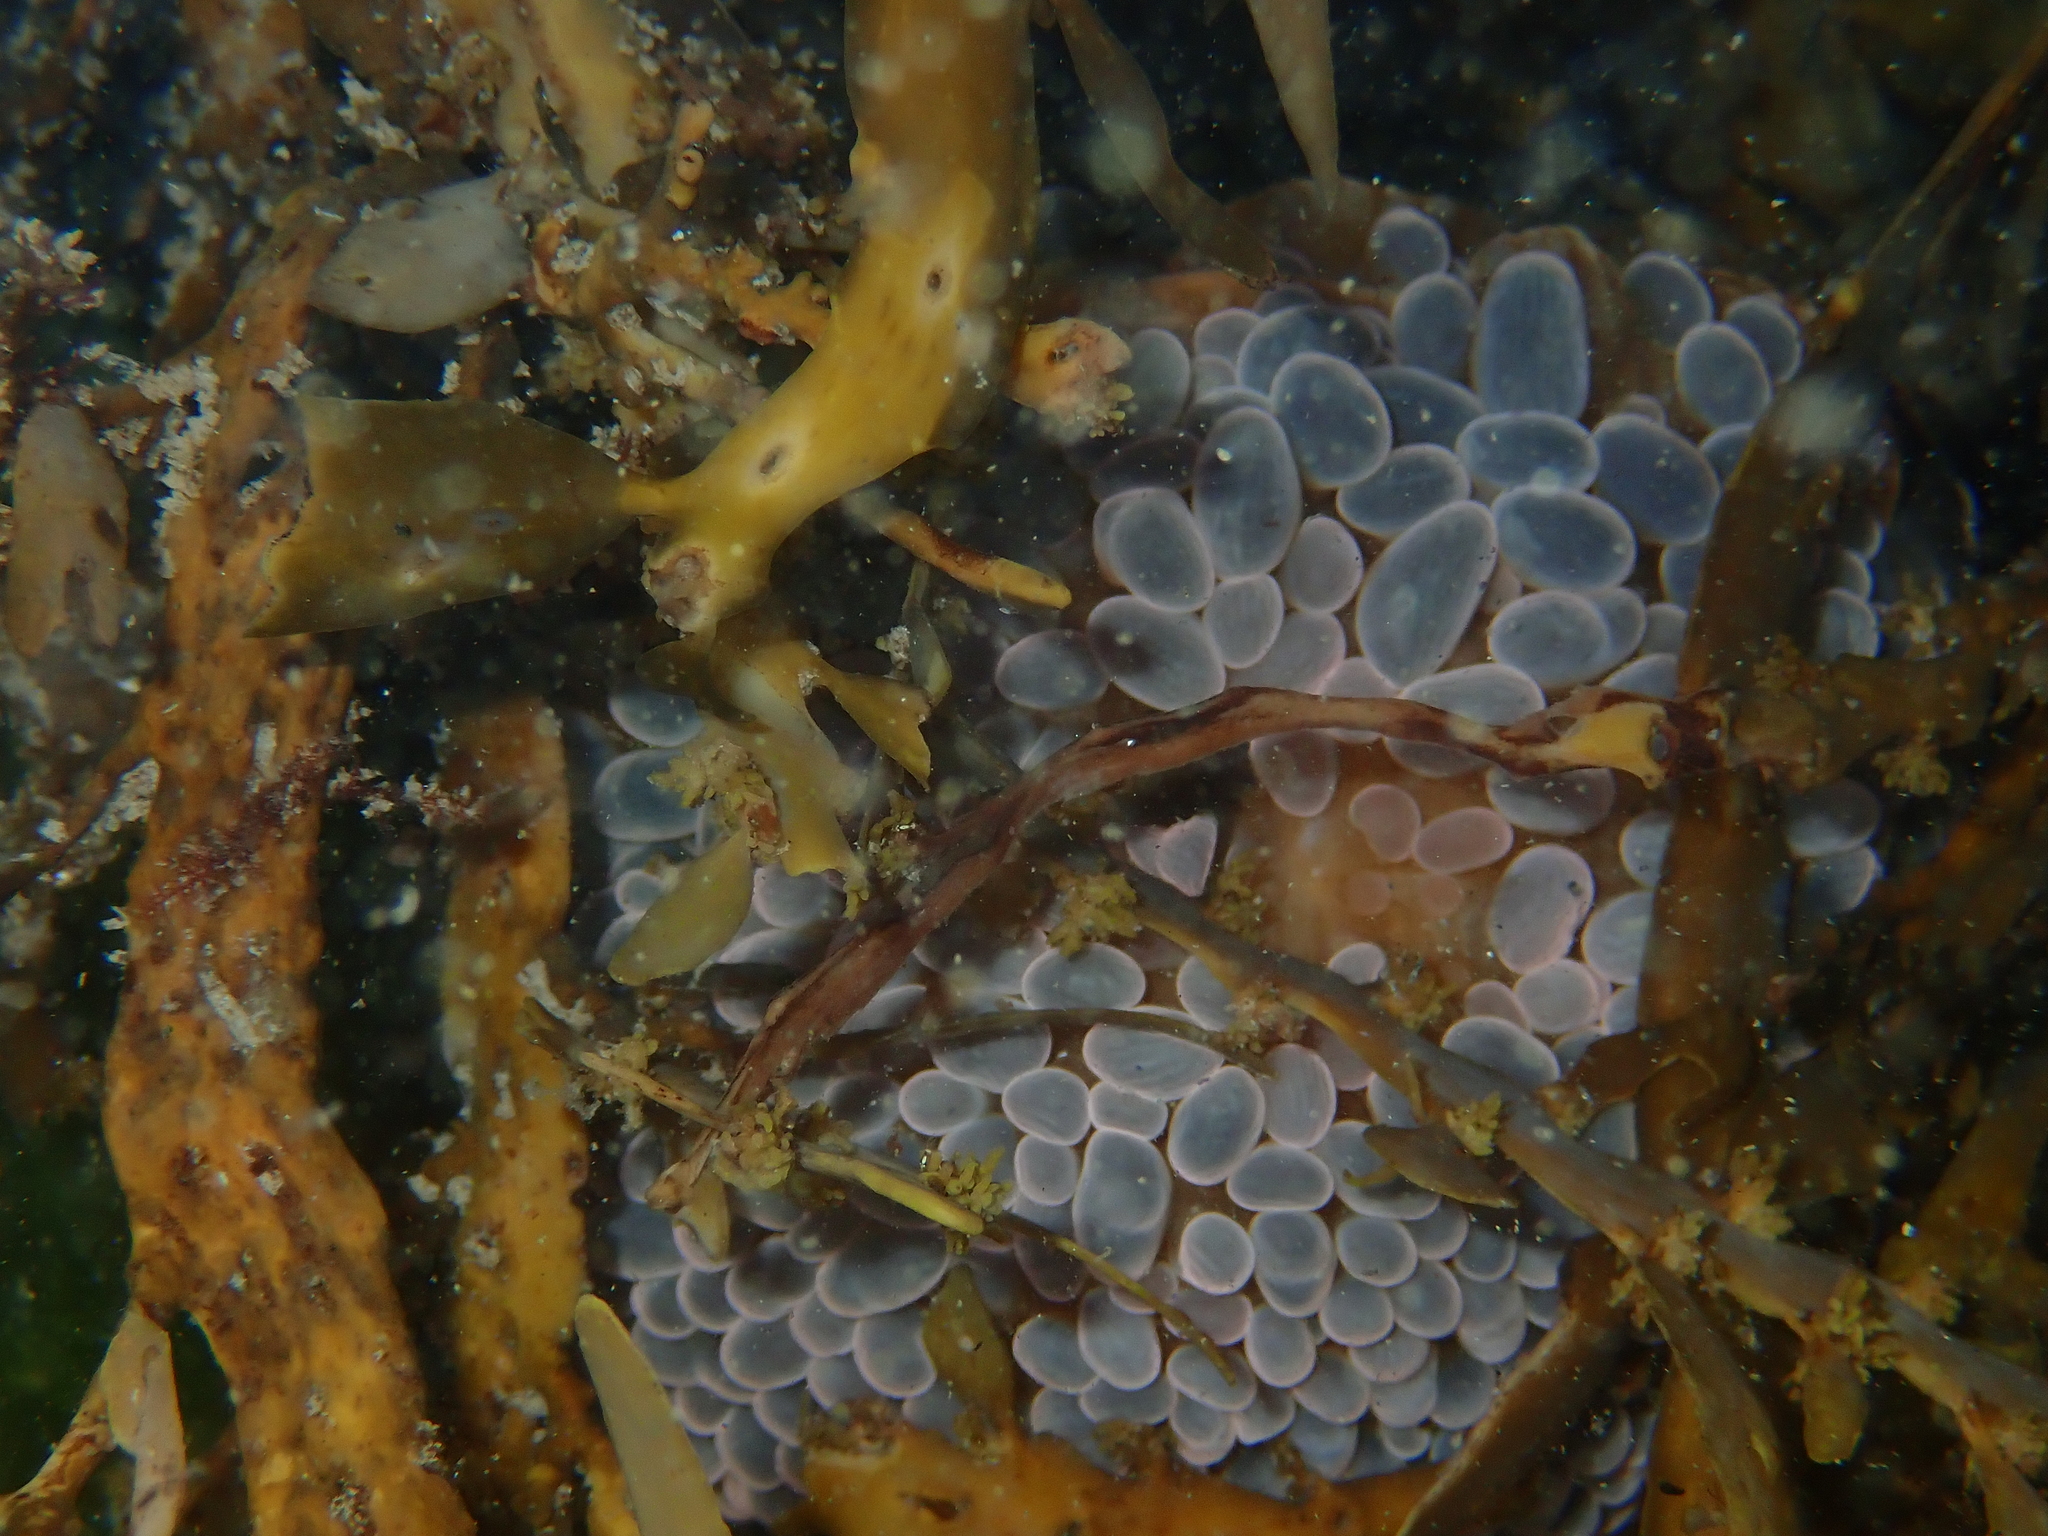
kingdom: Animalia
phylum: Cnidaria
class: Anthozoa
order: Actiniaria
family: Actiniidae
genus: Phlyctenactis
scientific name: Phlyctenactis tuberculosa
